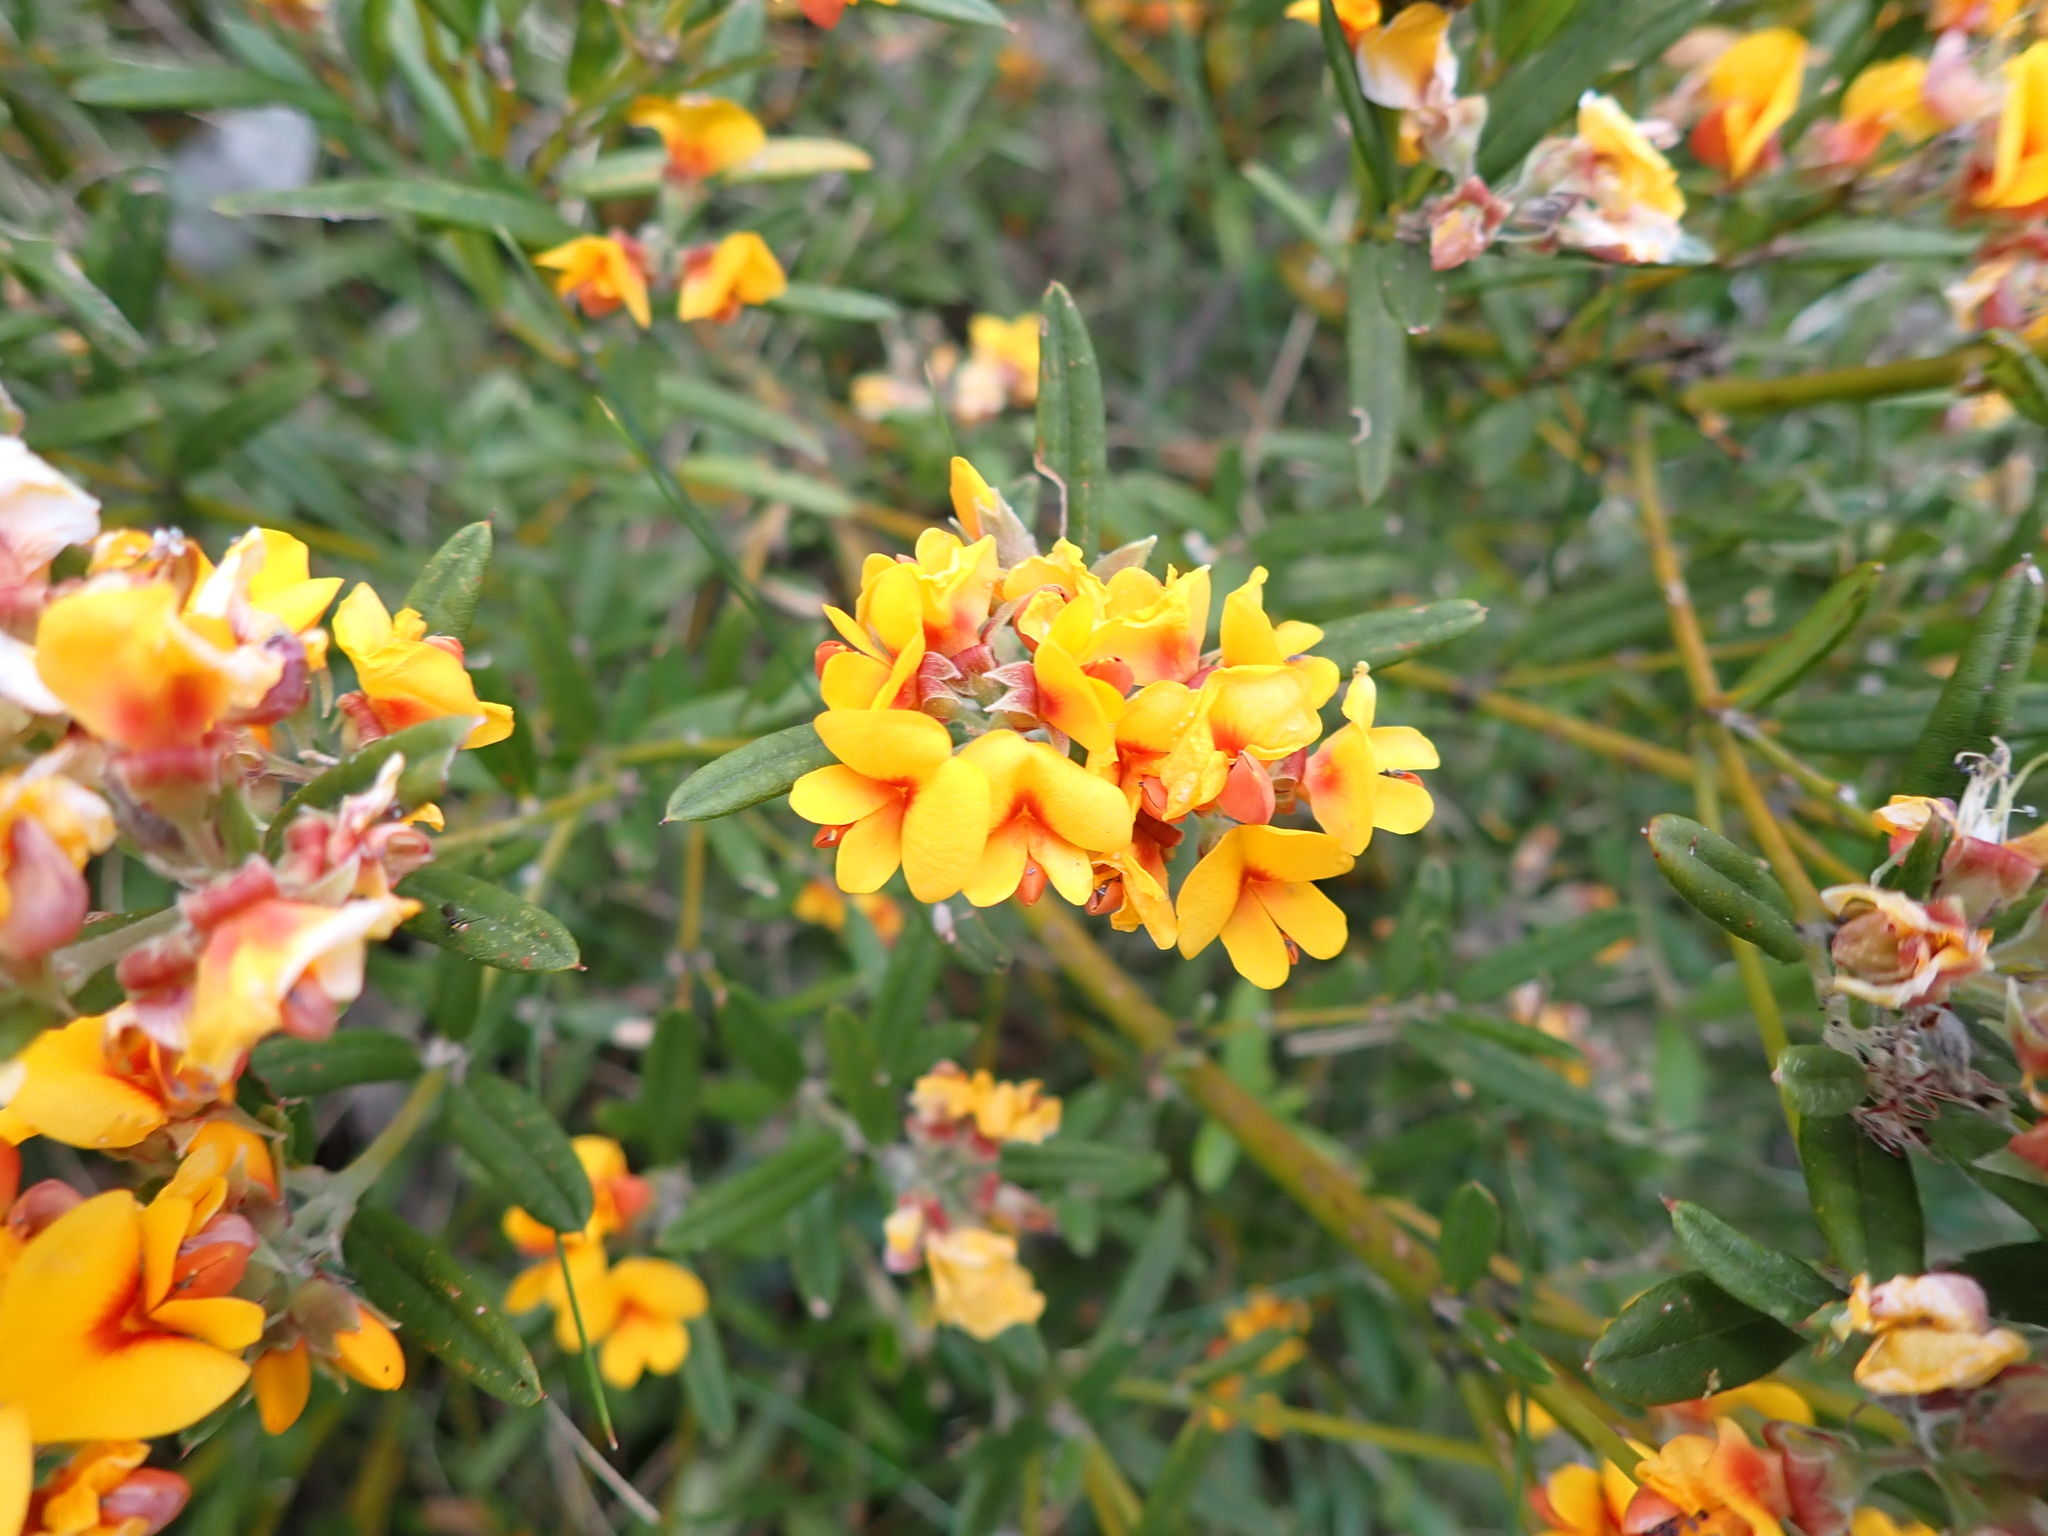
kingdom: Plantae
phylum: Tracheophyta
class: Magnoliopsida
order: Fabales
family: Fabaceae
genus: Podolobium
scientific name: Podolobium alpestre
